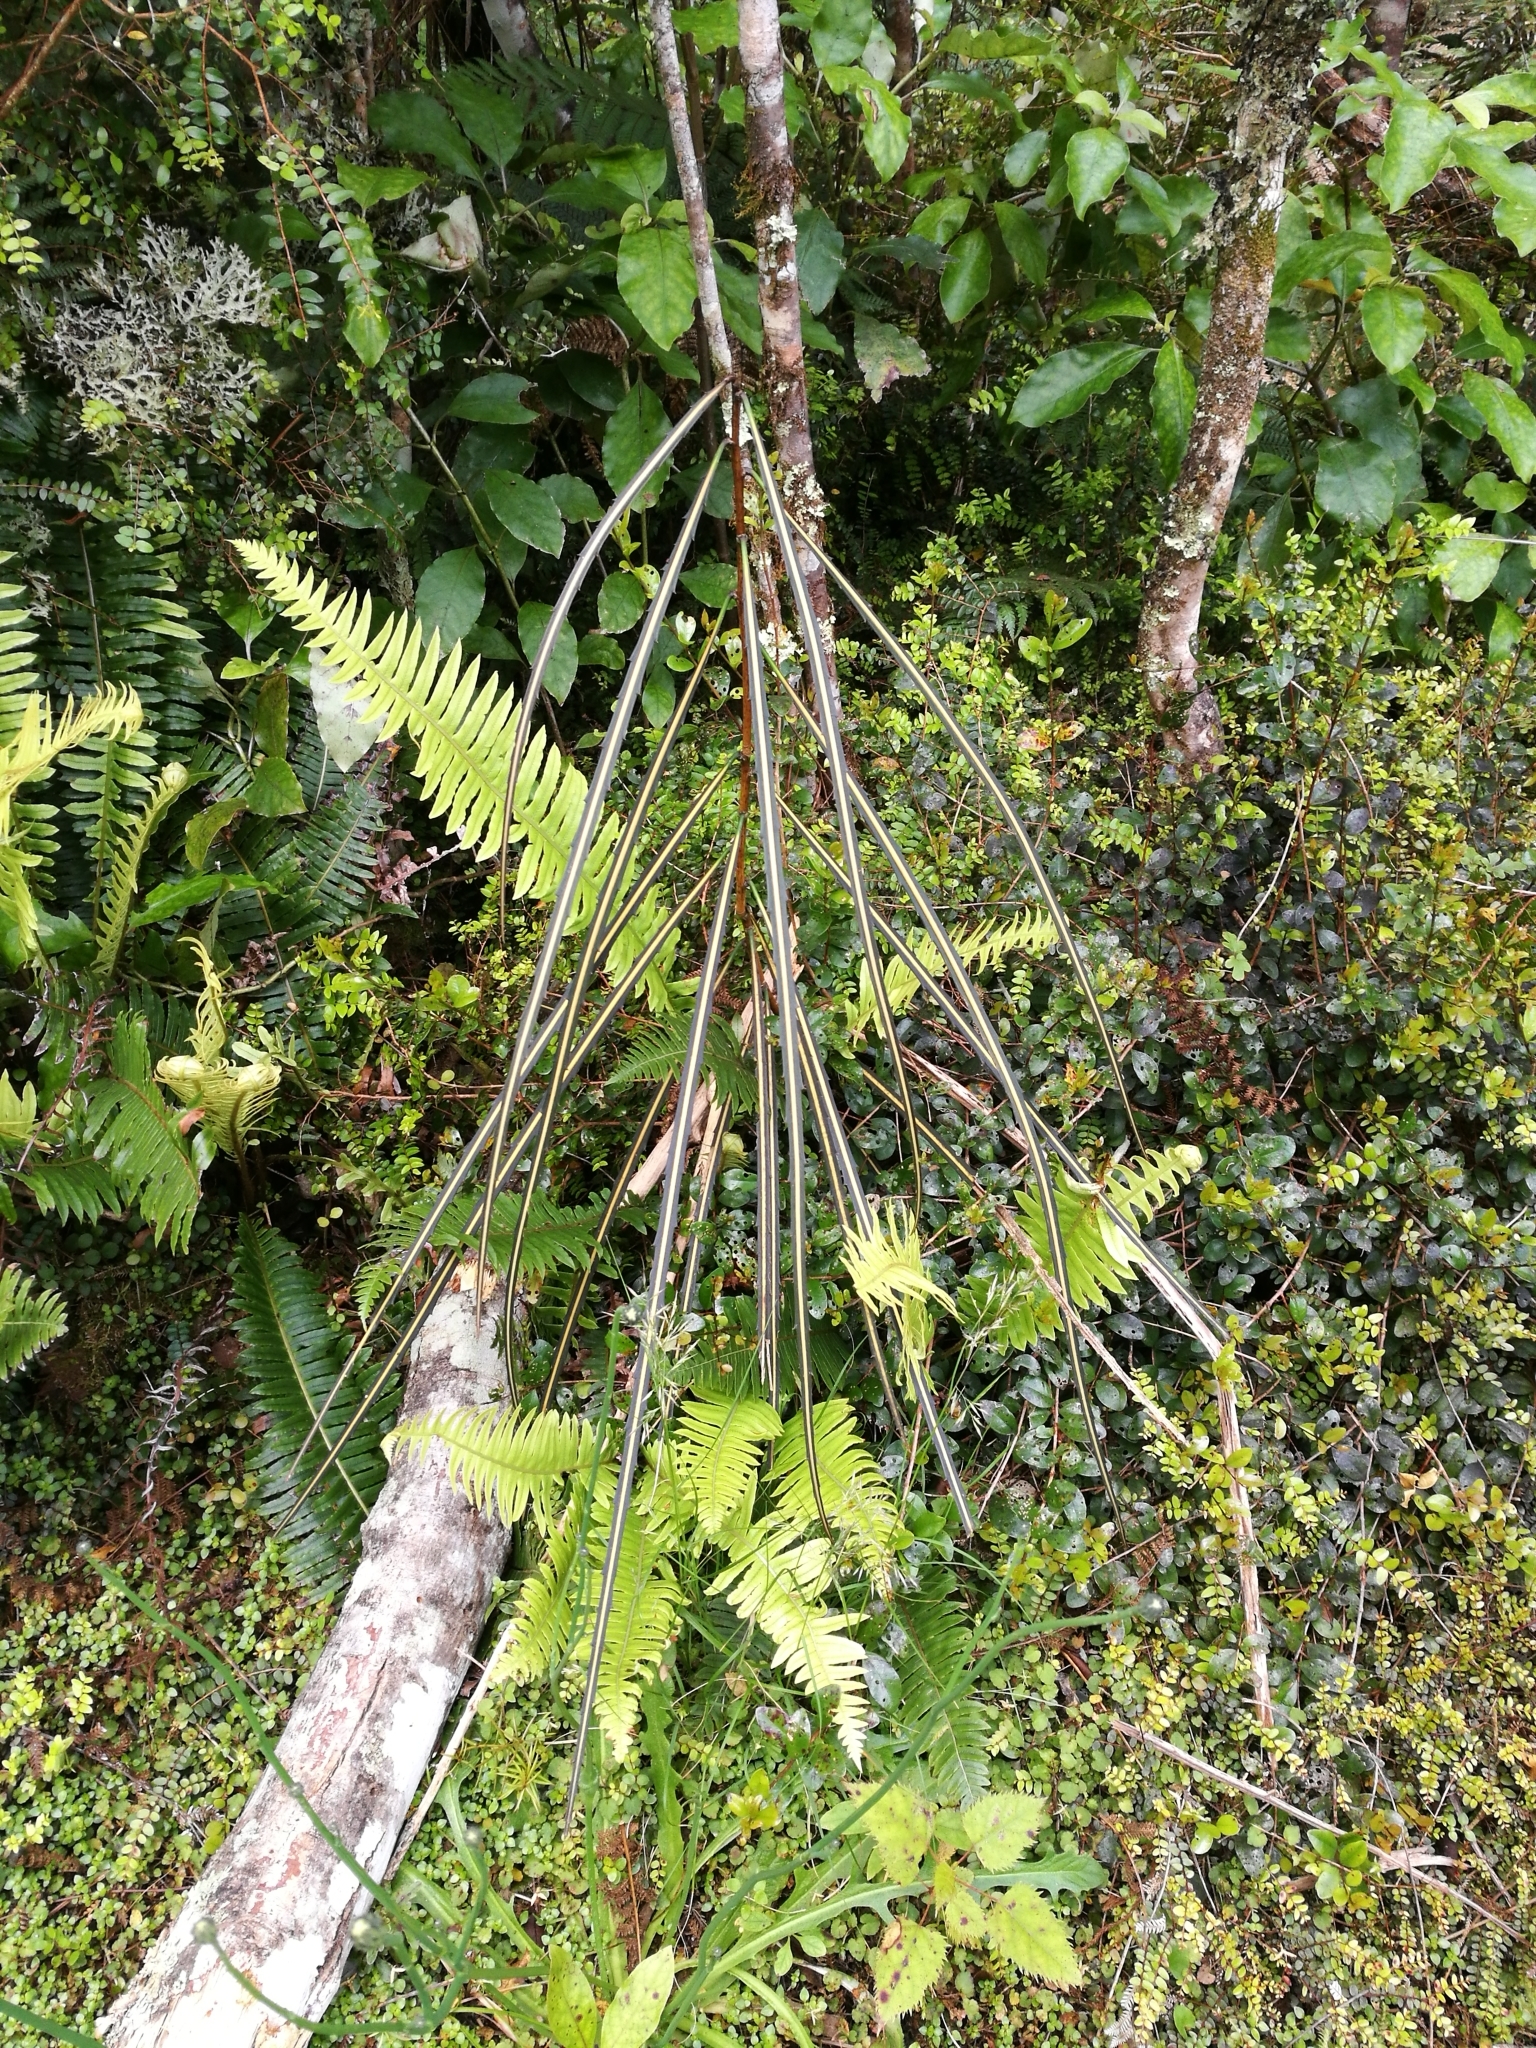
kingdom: Plantae
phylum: Tracheophyta
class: Magnoliopsida
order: Apiales
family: Araliaceae
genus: Pseudopanax
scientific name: Pseudopanax crassifolius
